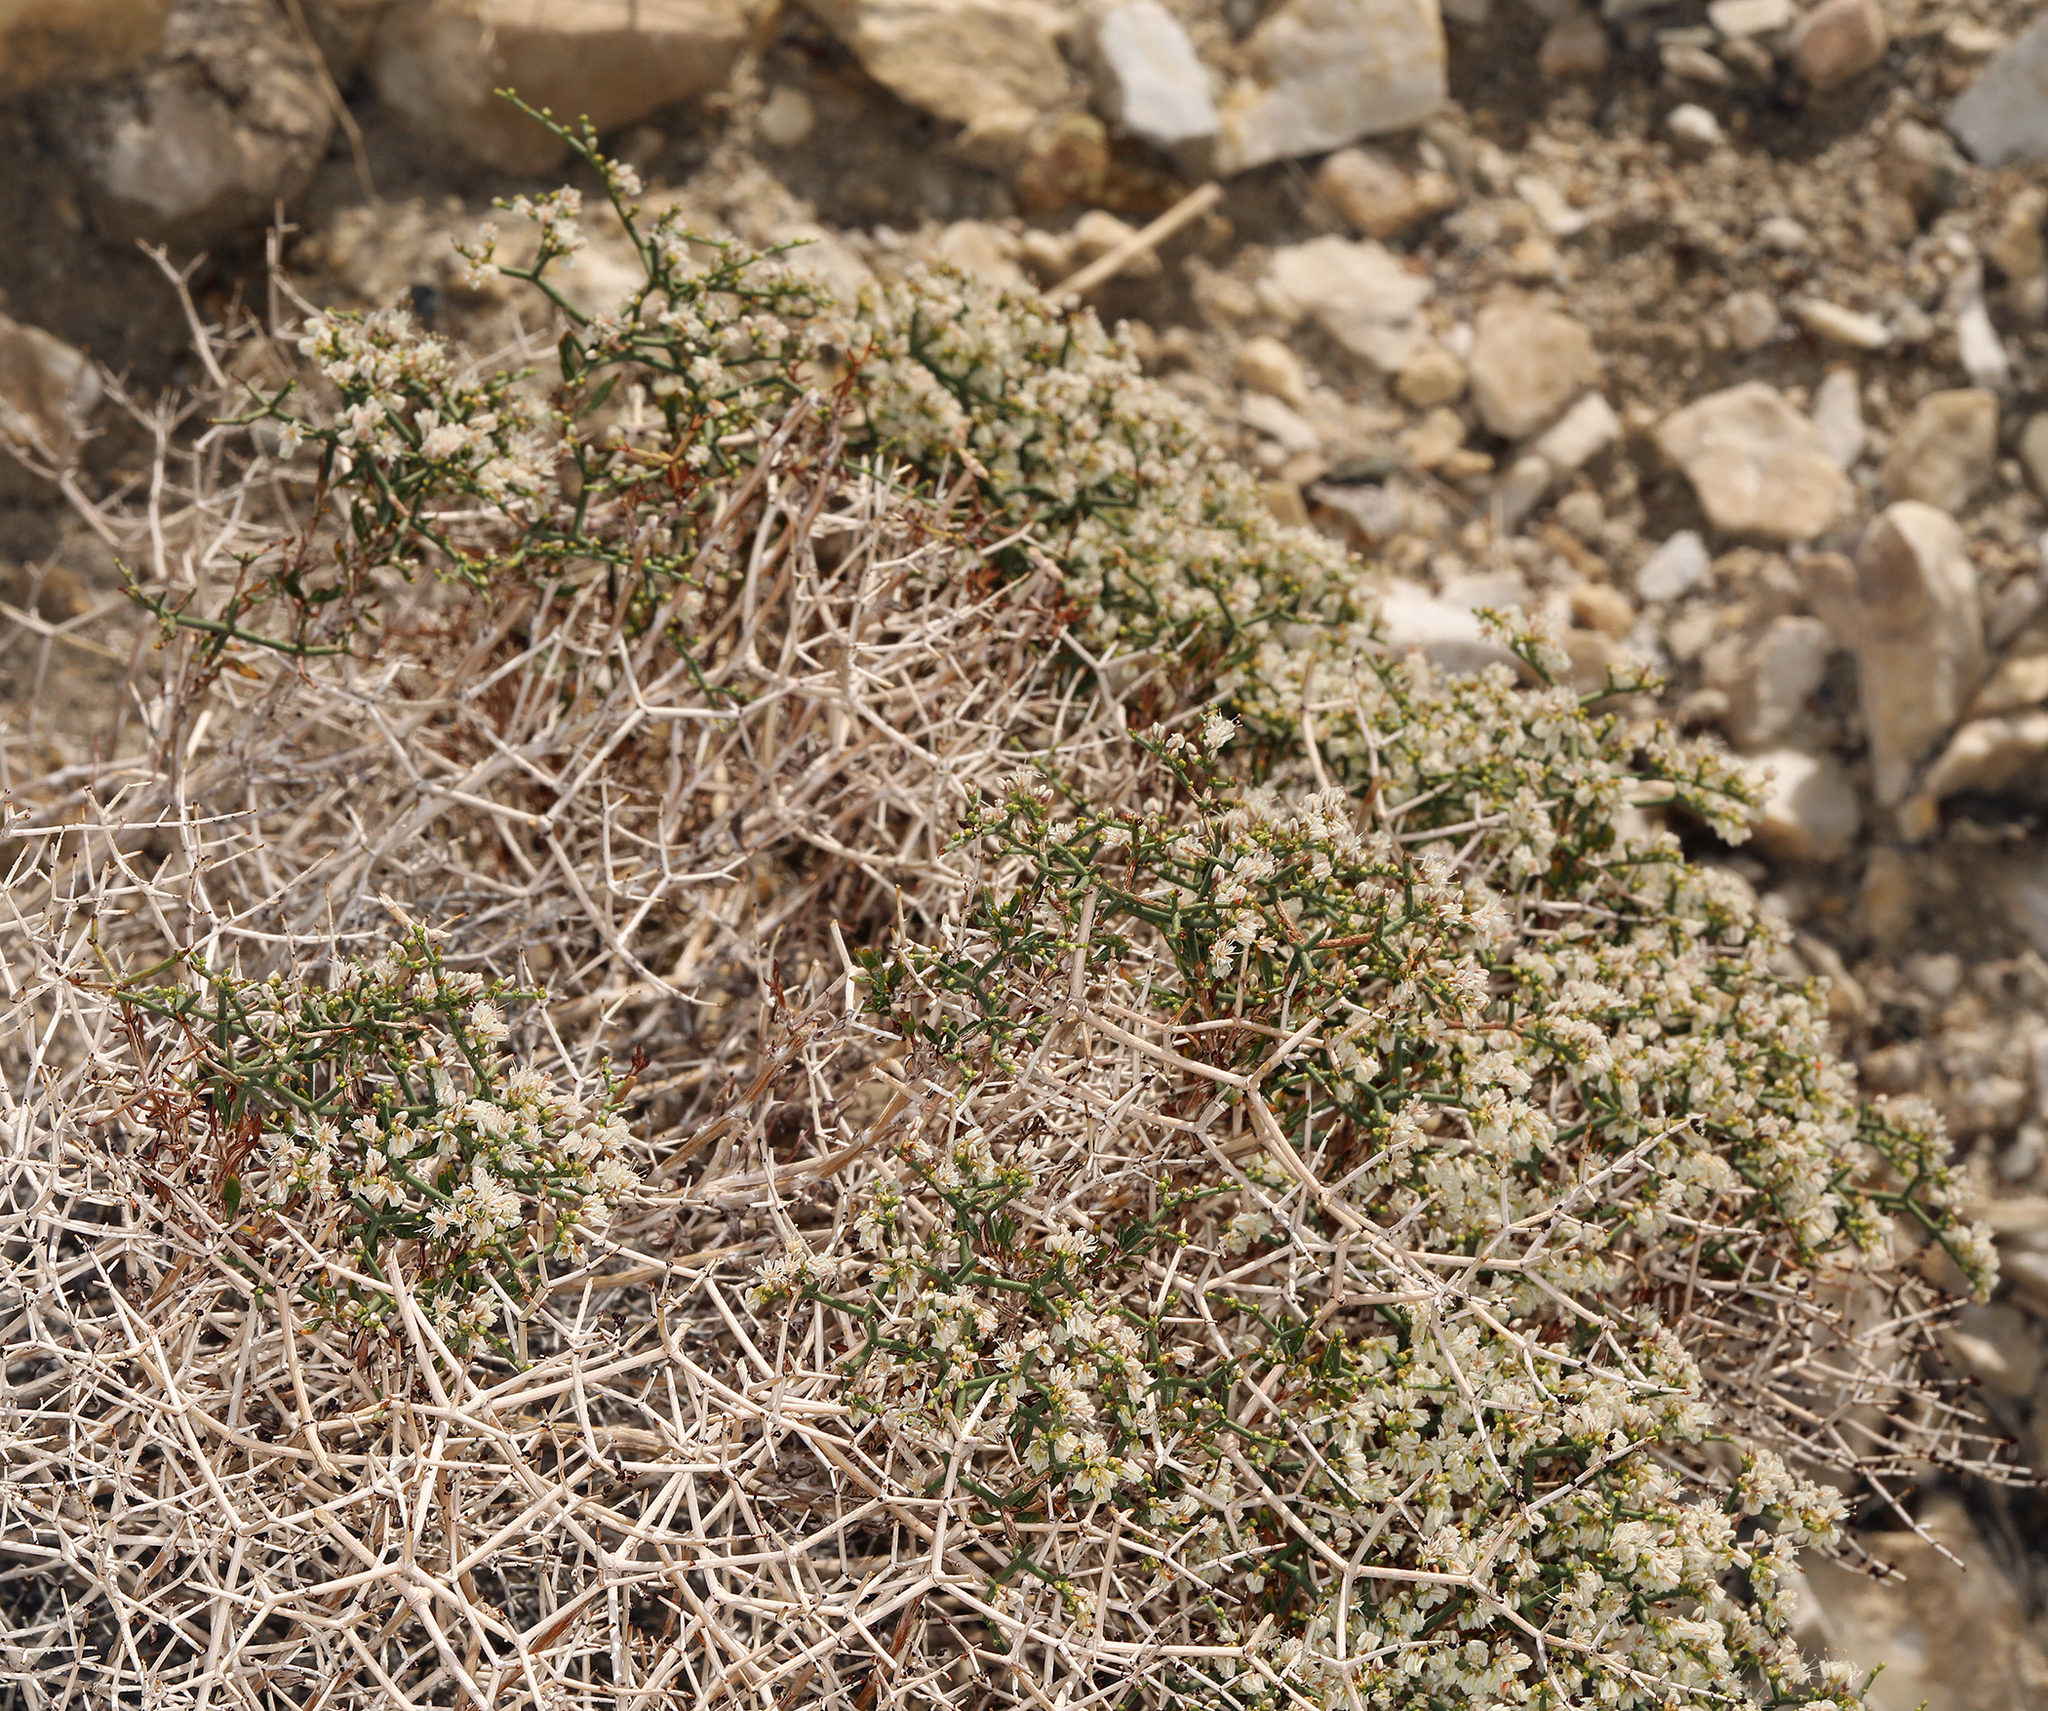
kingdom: Plantae
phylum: Tracheophyta
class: Magnoliopsida
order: Caryophyllales
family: Polygonaceae
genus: Eriogonum
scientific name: Eriogonum heermannii
